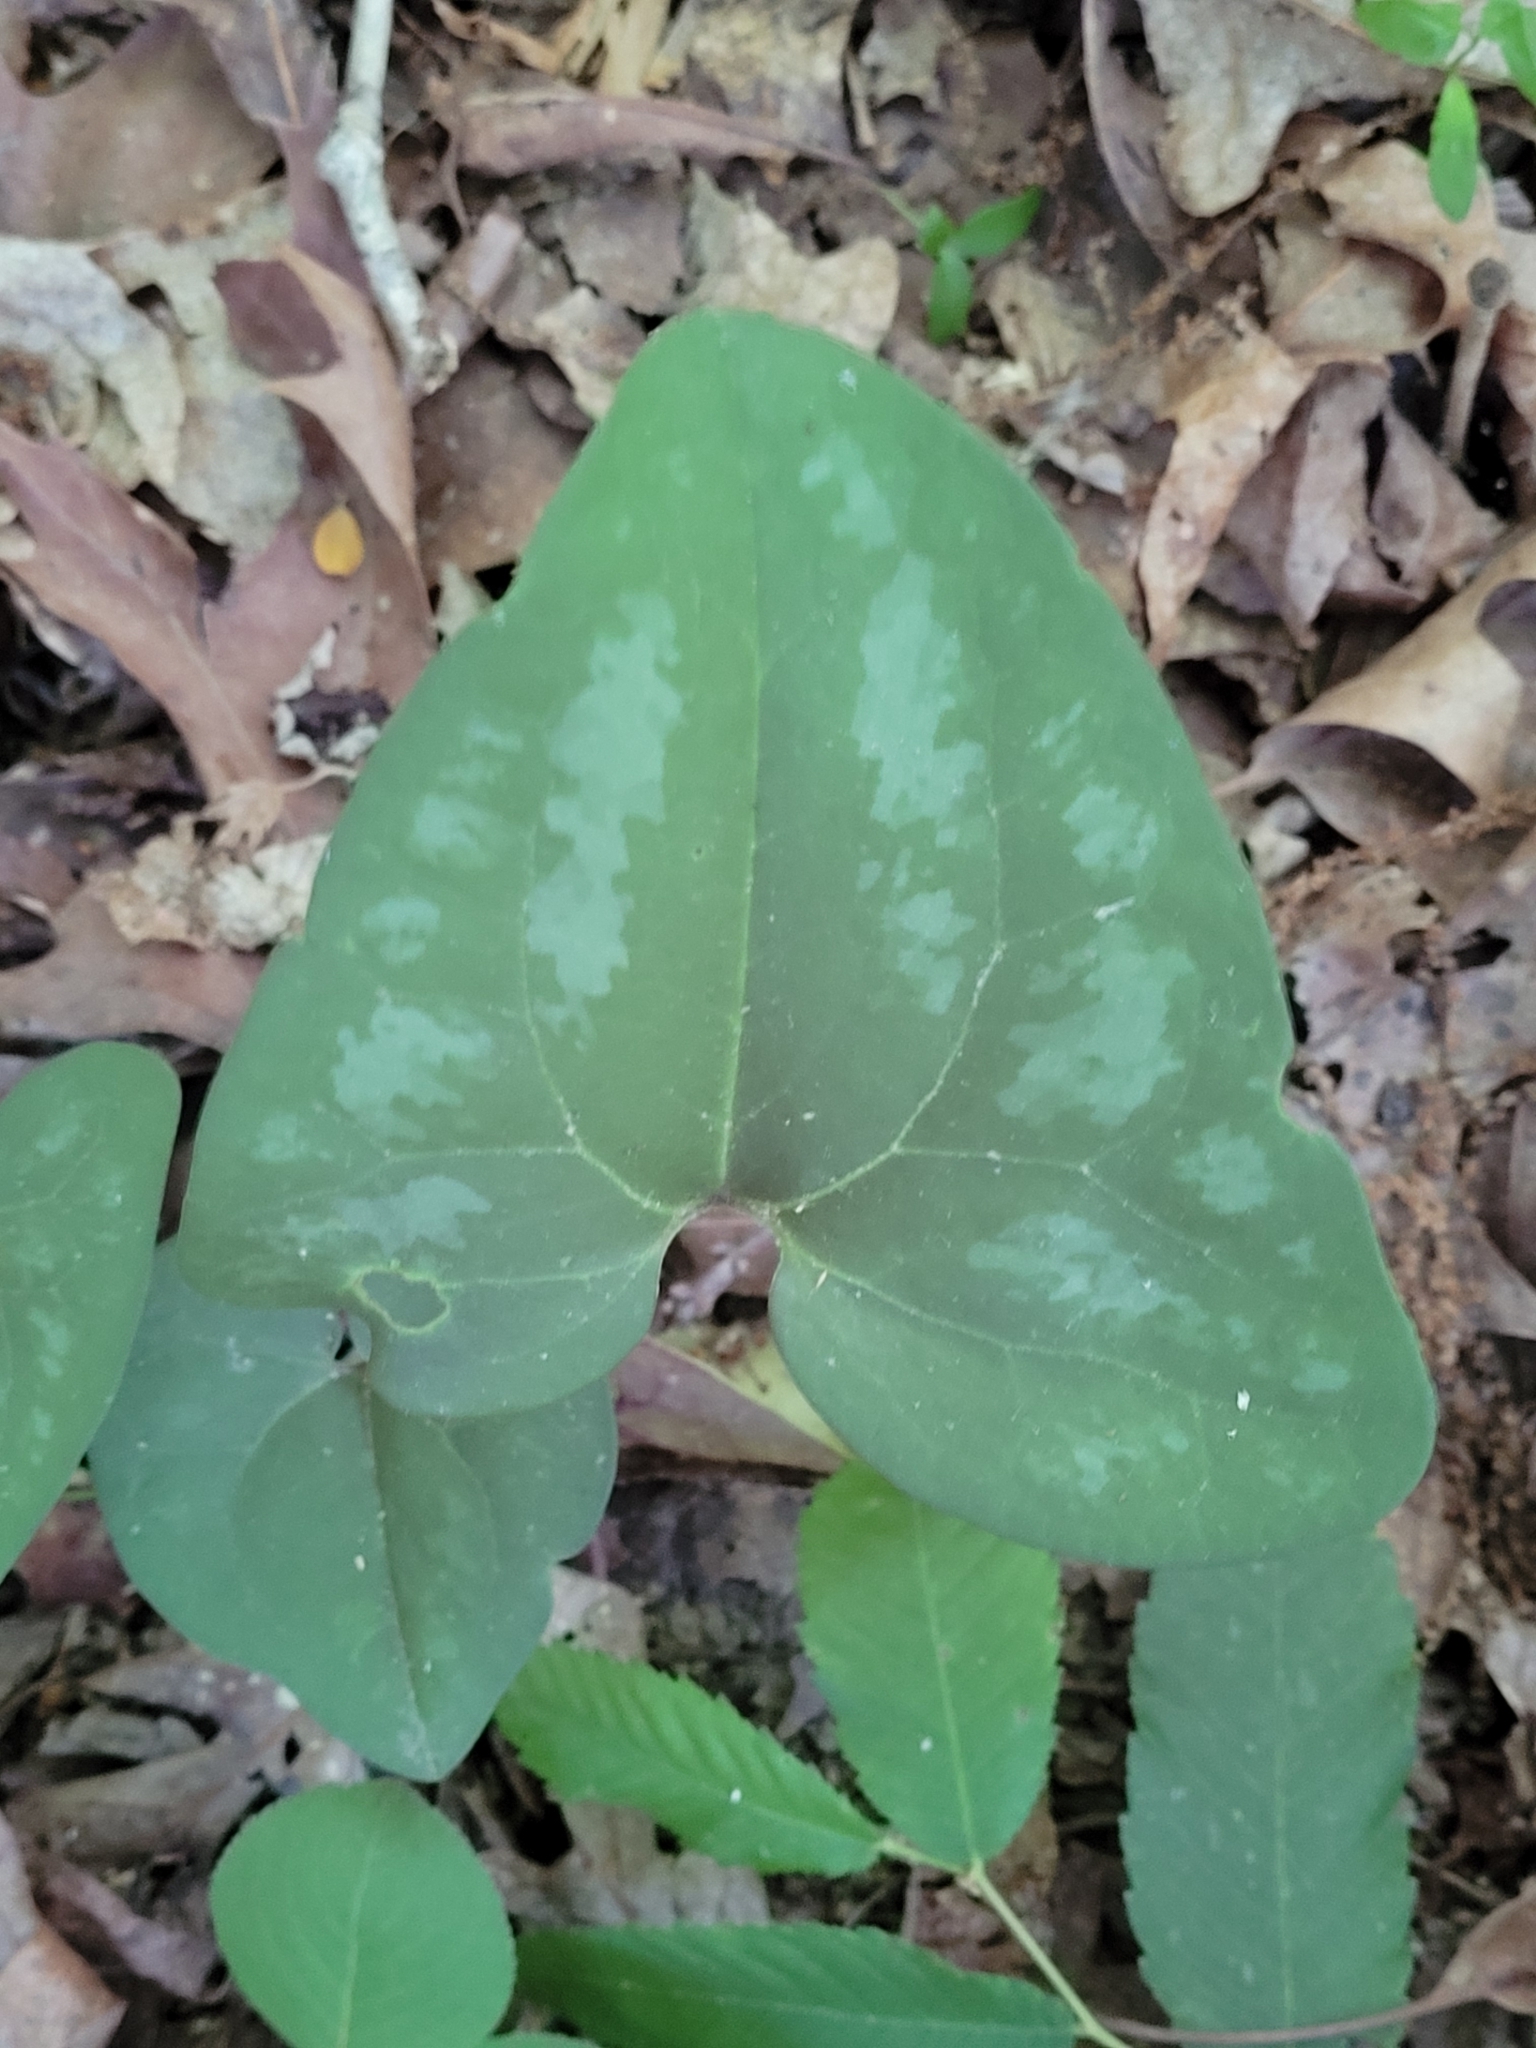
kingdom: Plantae
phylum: Tracheophyta
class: Magnoliopsida
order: Piperales
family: Aristolochiaceae
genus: Hexastylis
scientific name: Hexastylis arifolia
